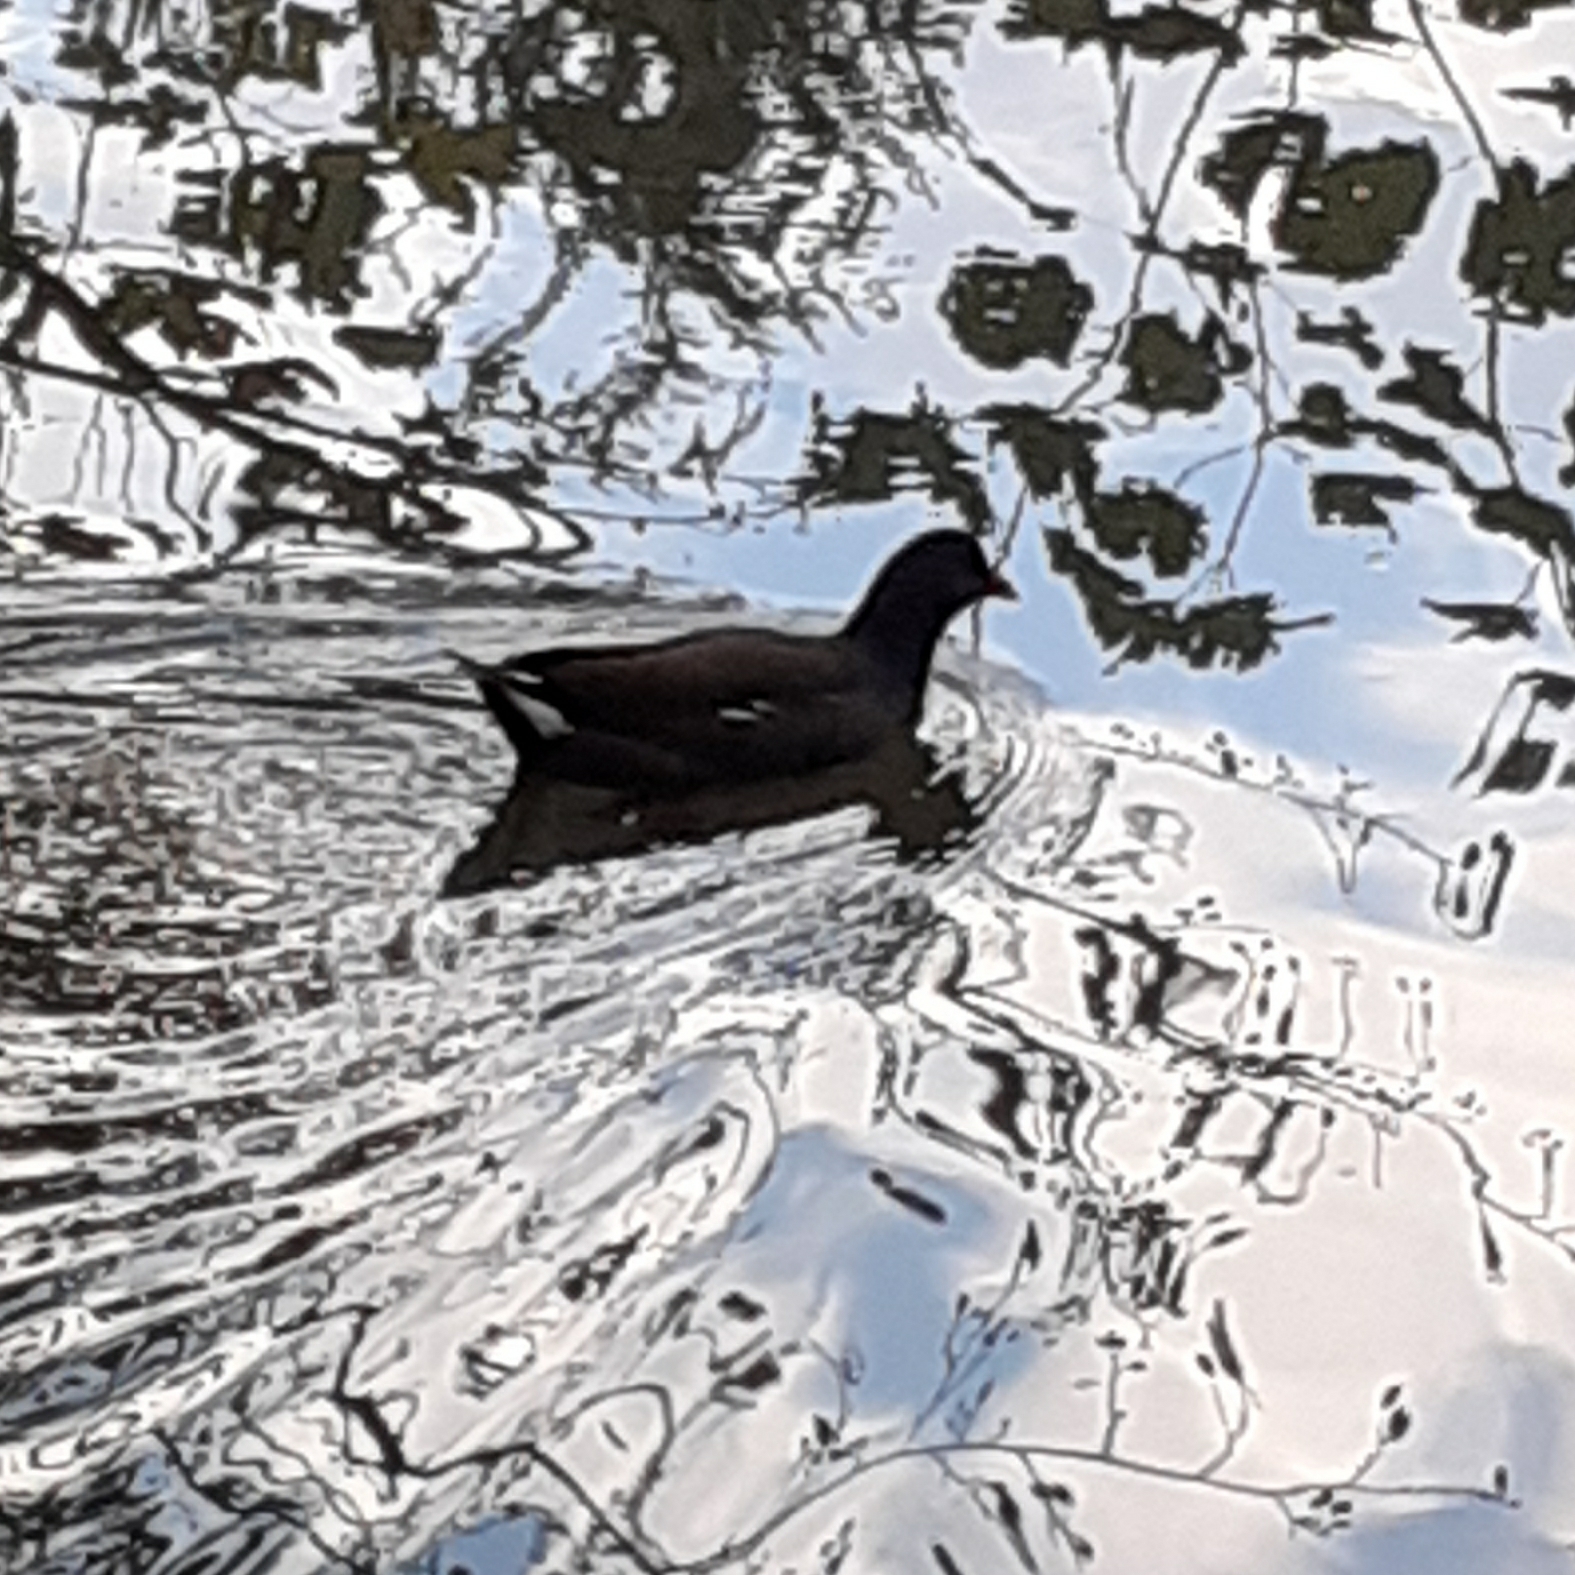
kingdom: Animalia
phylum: Chordata
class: Aves
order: Gruiformes
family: Rallidae
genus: Gallinula
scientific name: Gallinula chloropus
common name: Common moorhen
